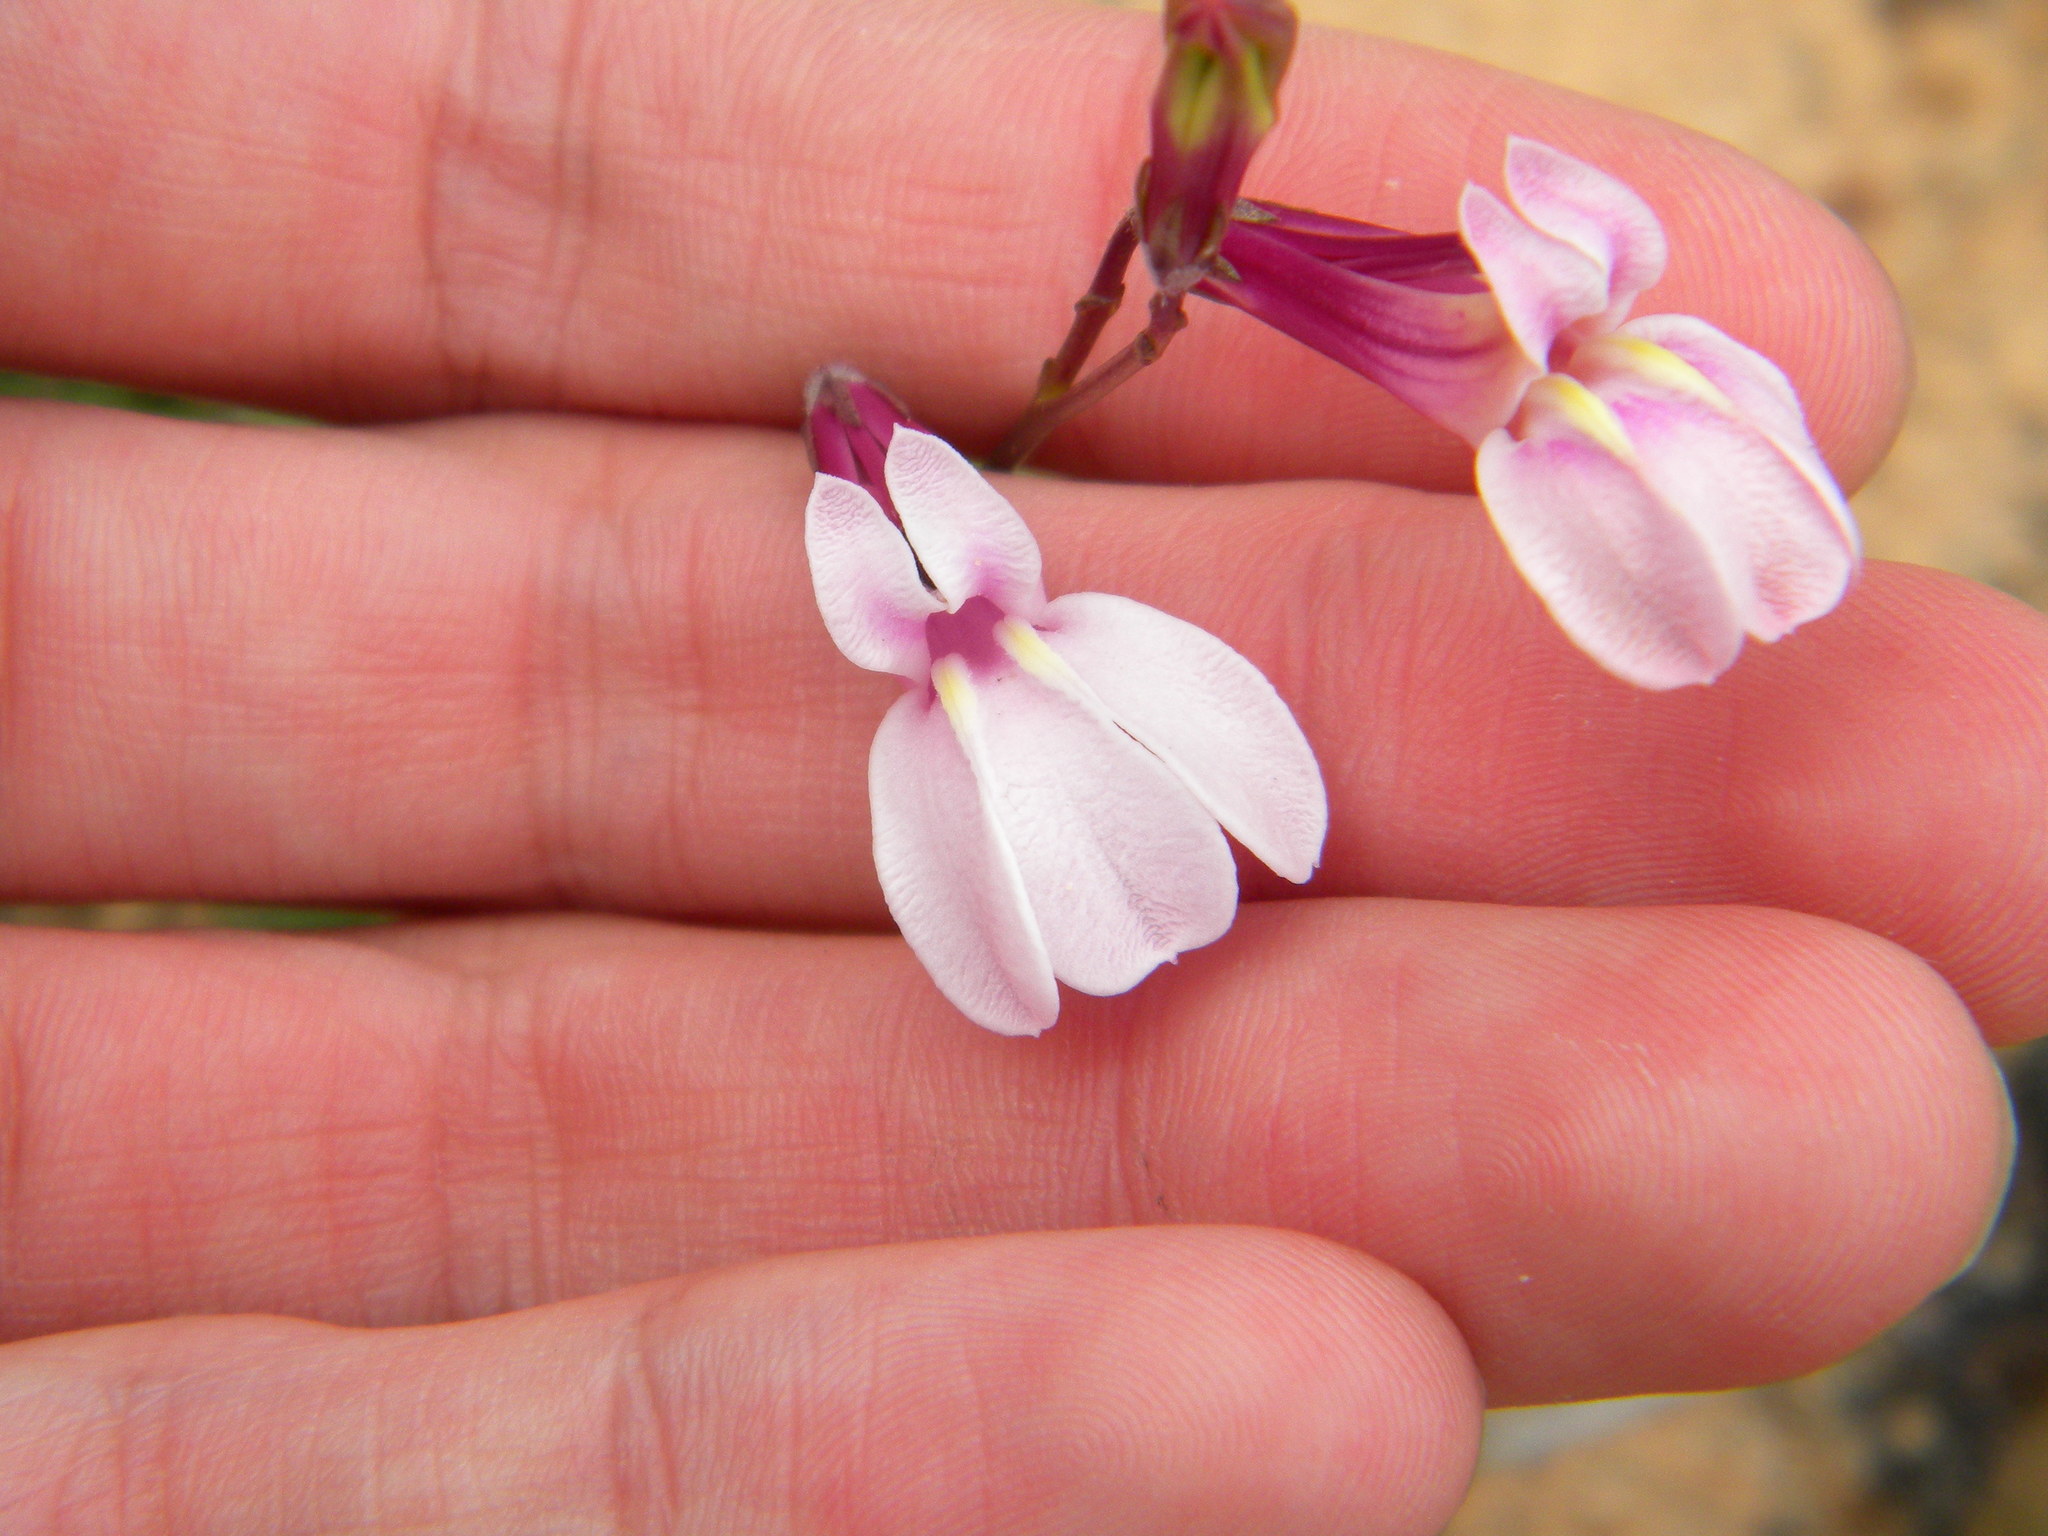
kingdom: Plantae
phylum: Tracheophyta
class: Magnoliopsida
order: Asterales
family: Campanulaceae
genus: Lobelia
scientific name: Lobelia coronopifolia
